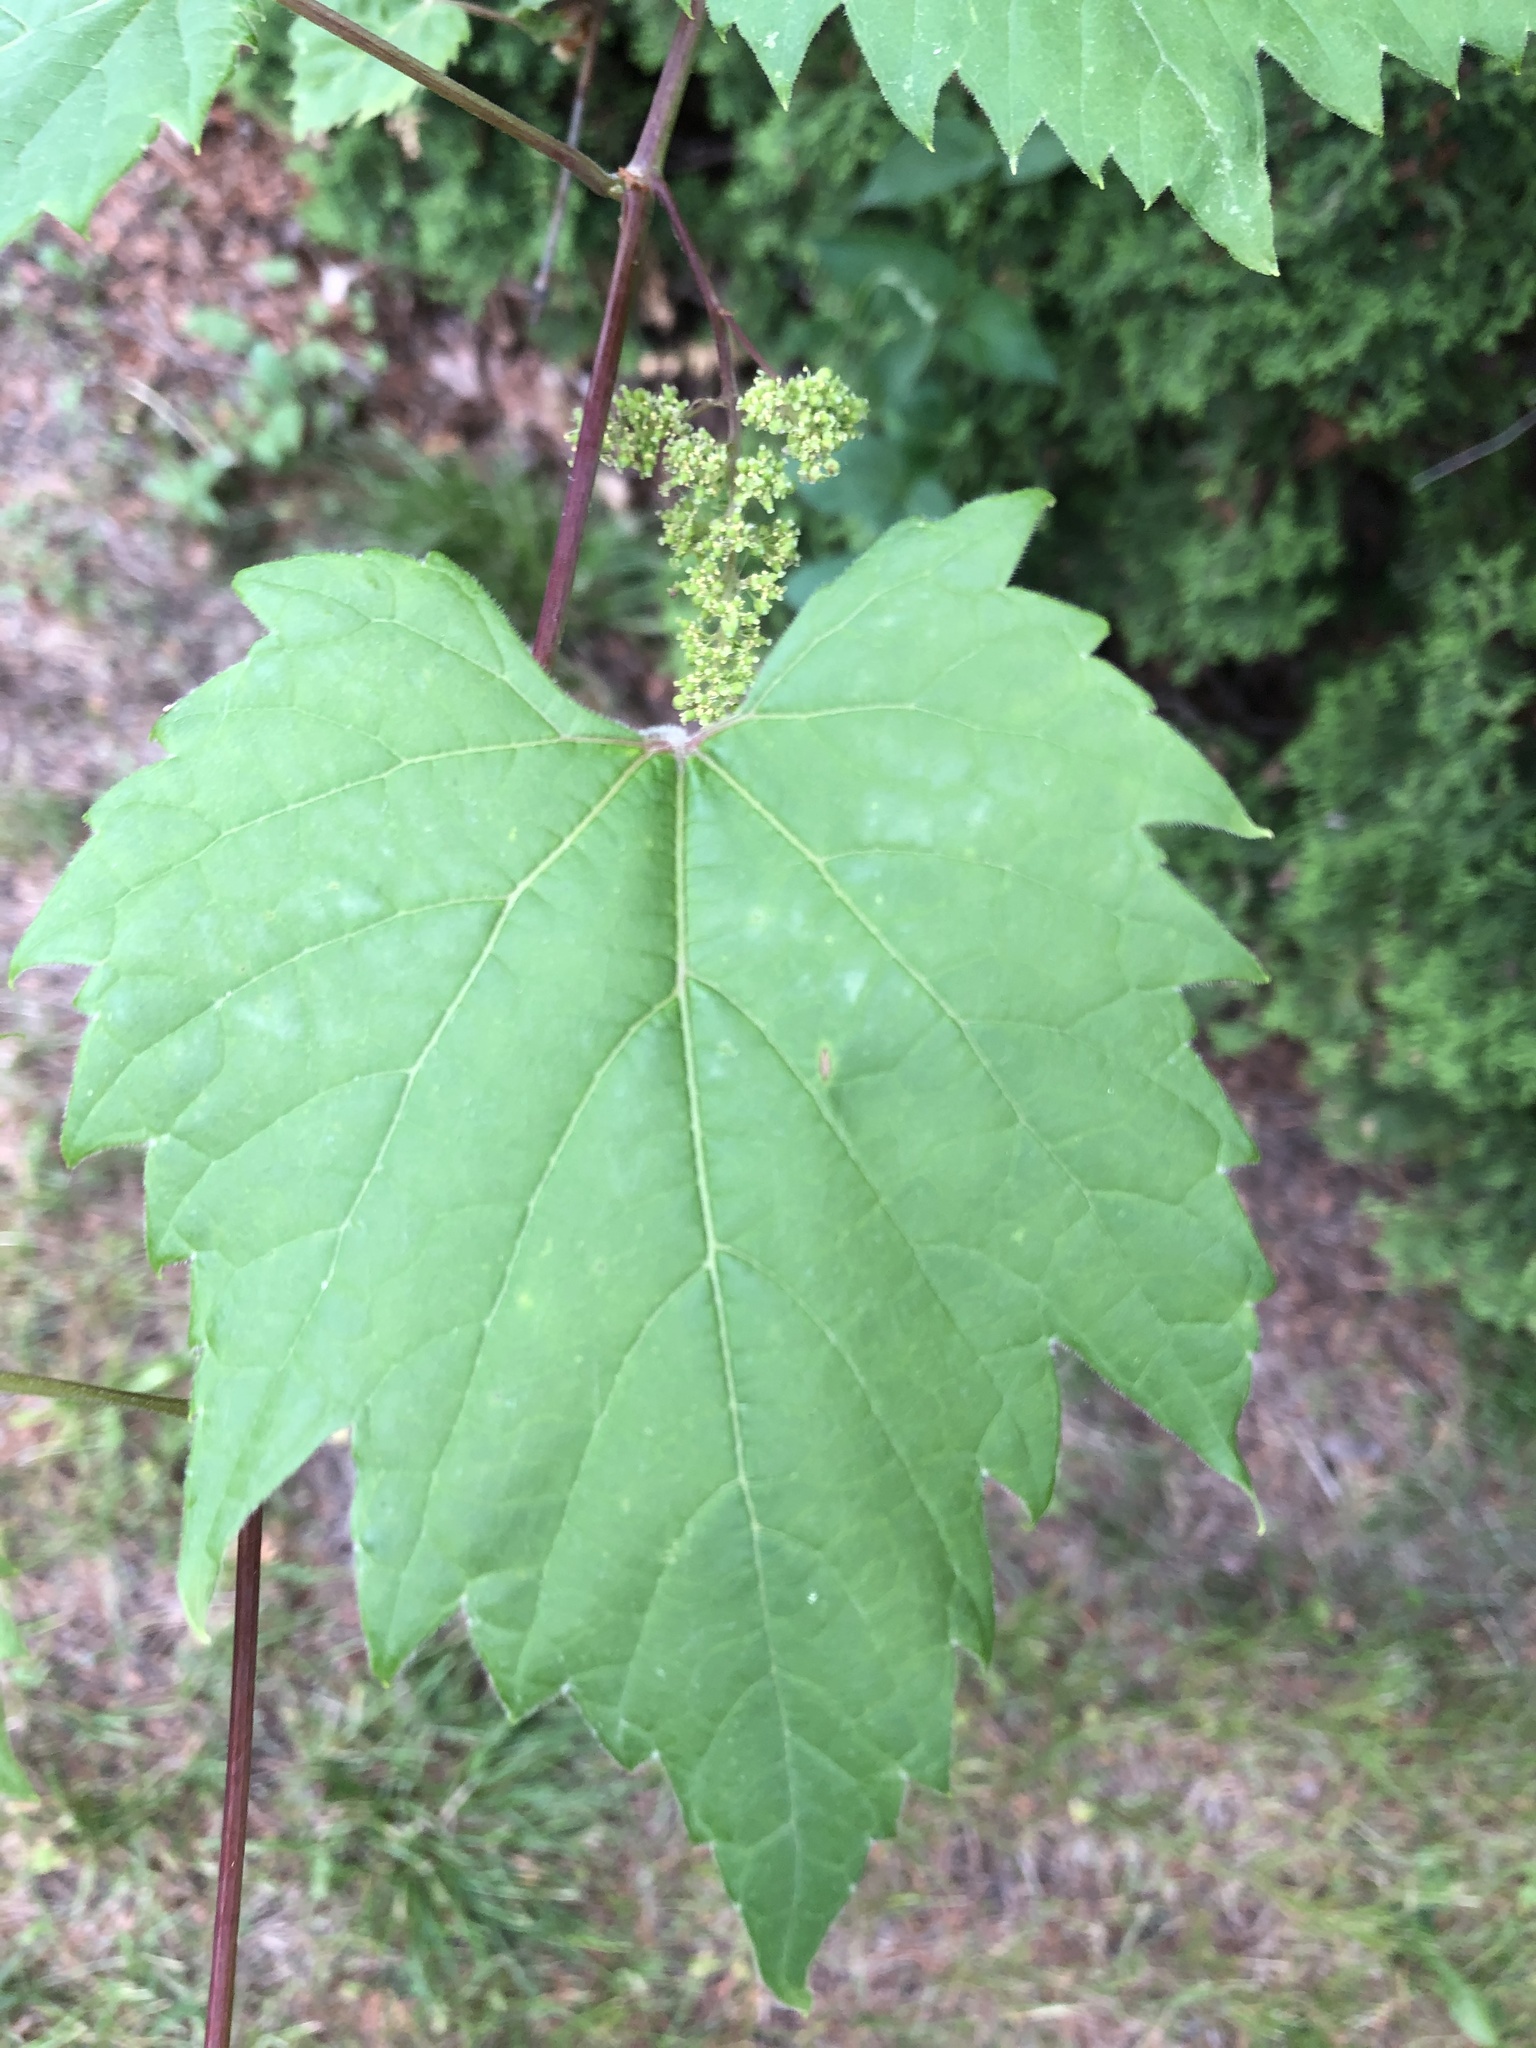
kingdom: Plantae
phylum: Tracheophyta
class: Magnoliopsida
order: Vitales
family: Vitaceae
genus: Vitis
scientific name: Vitis riparia
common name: Frost grape
